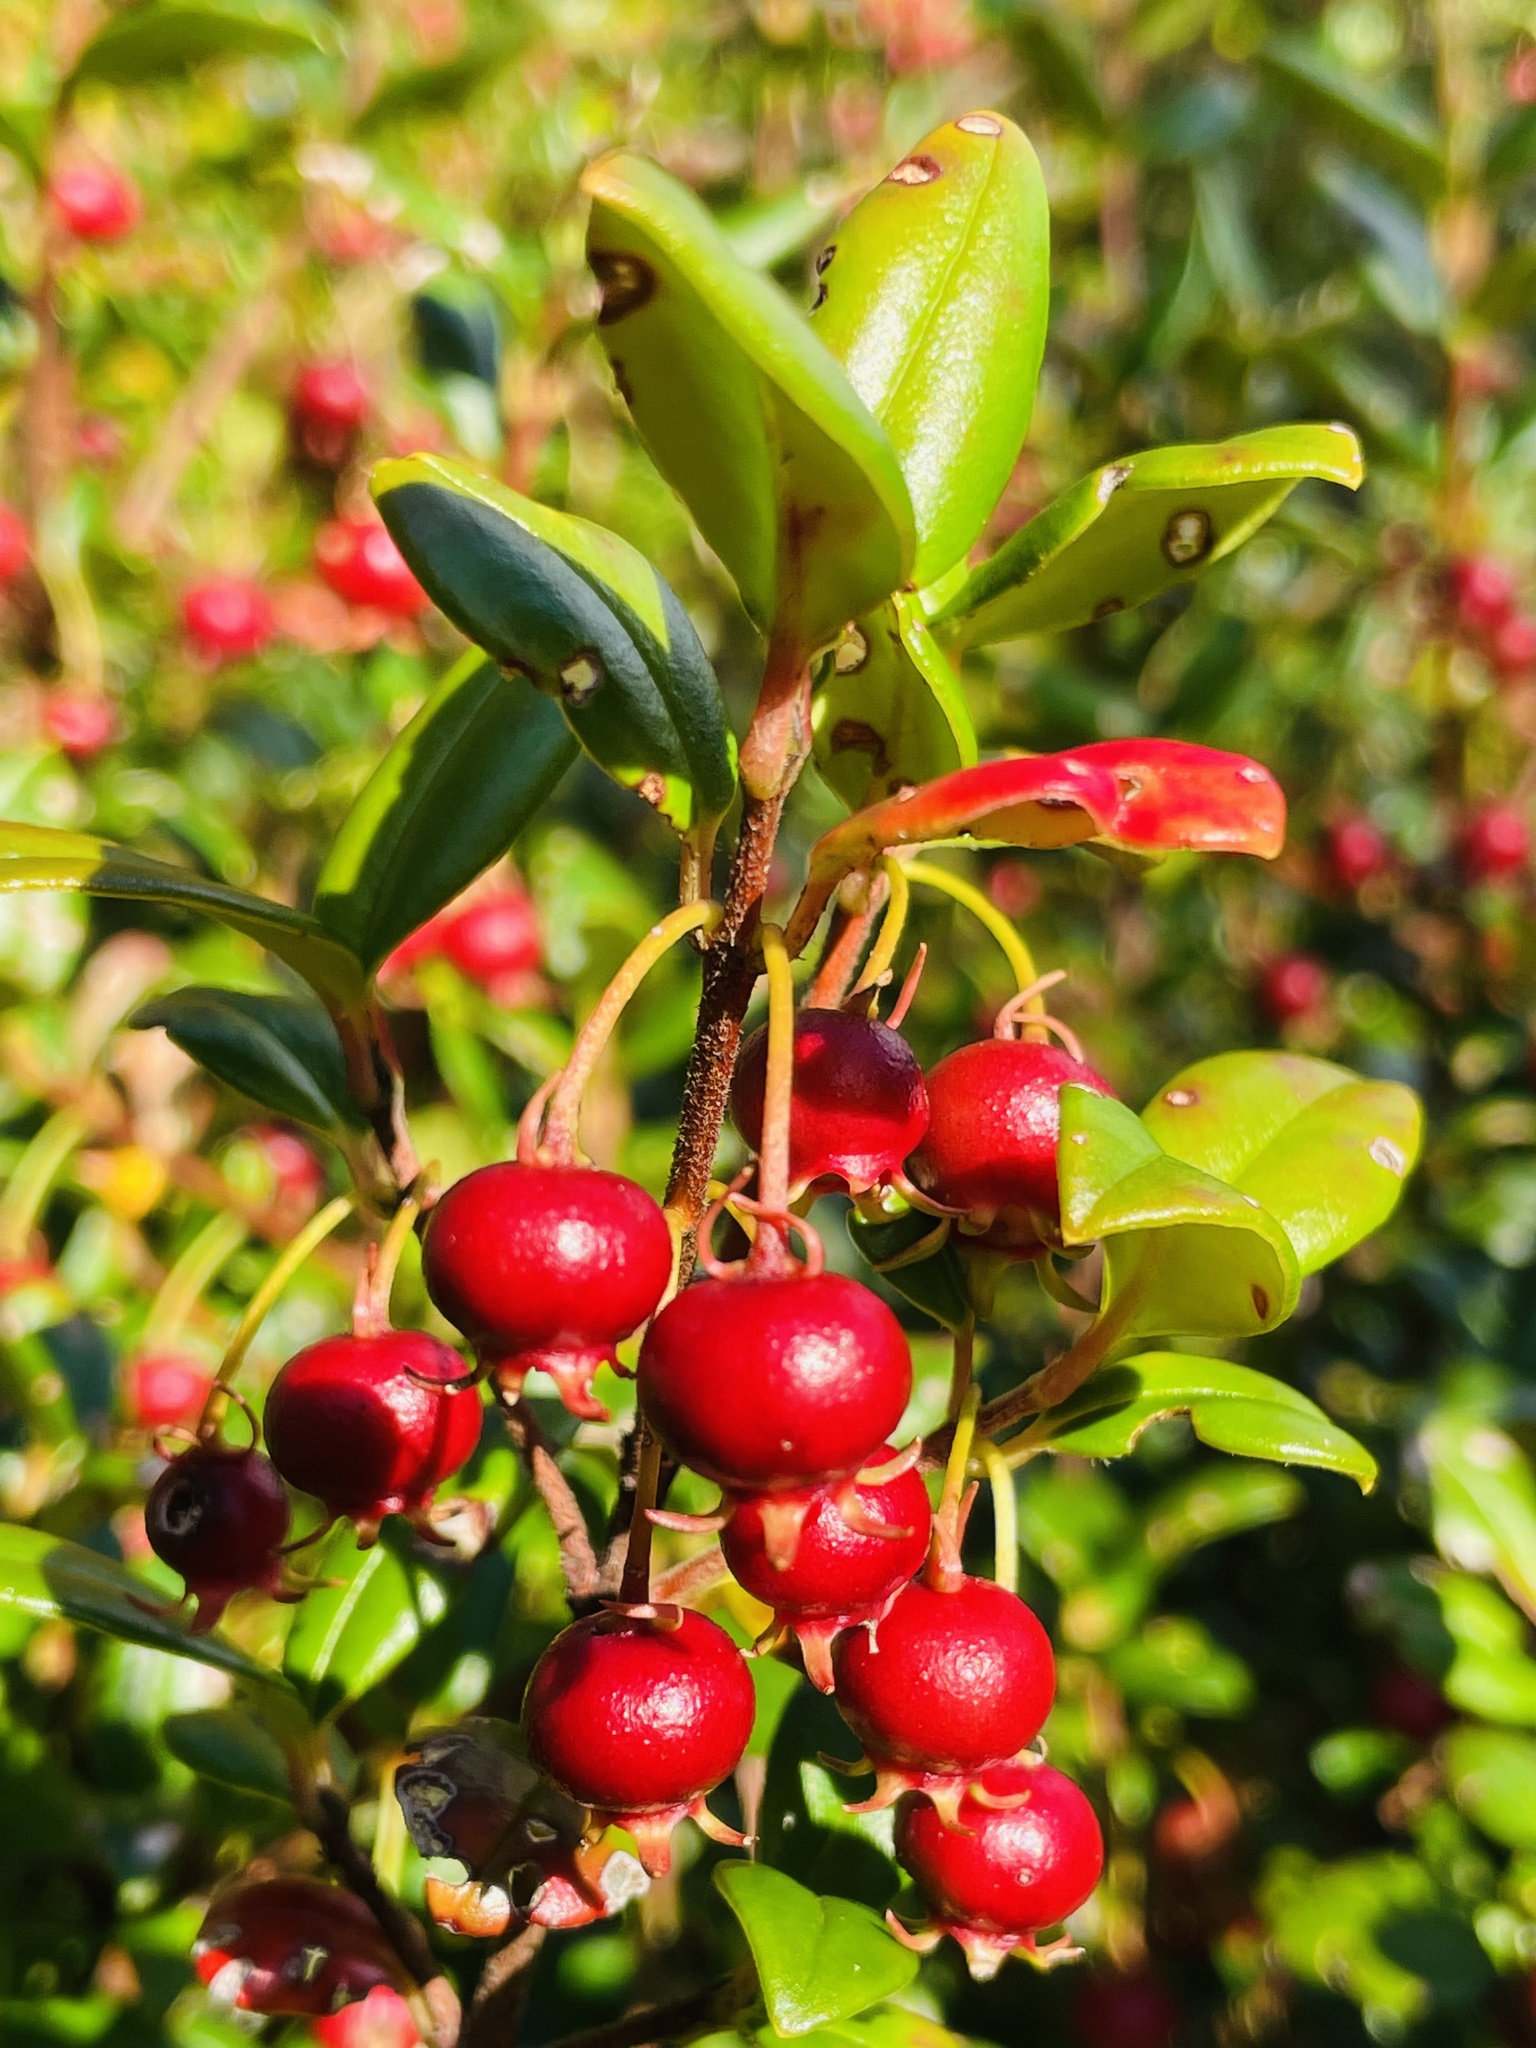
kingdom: Plantae
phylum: Tracheophyta
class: Magnoliopsida
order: Myrtales
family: Myrtaceae
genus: Ugni
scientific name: Ugni molinae
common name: Chilean-guava
